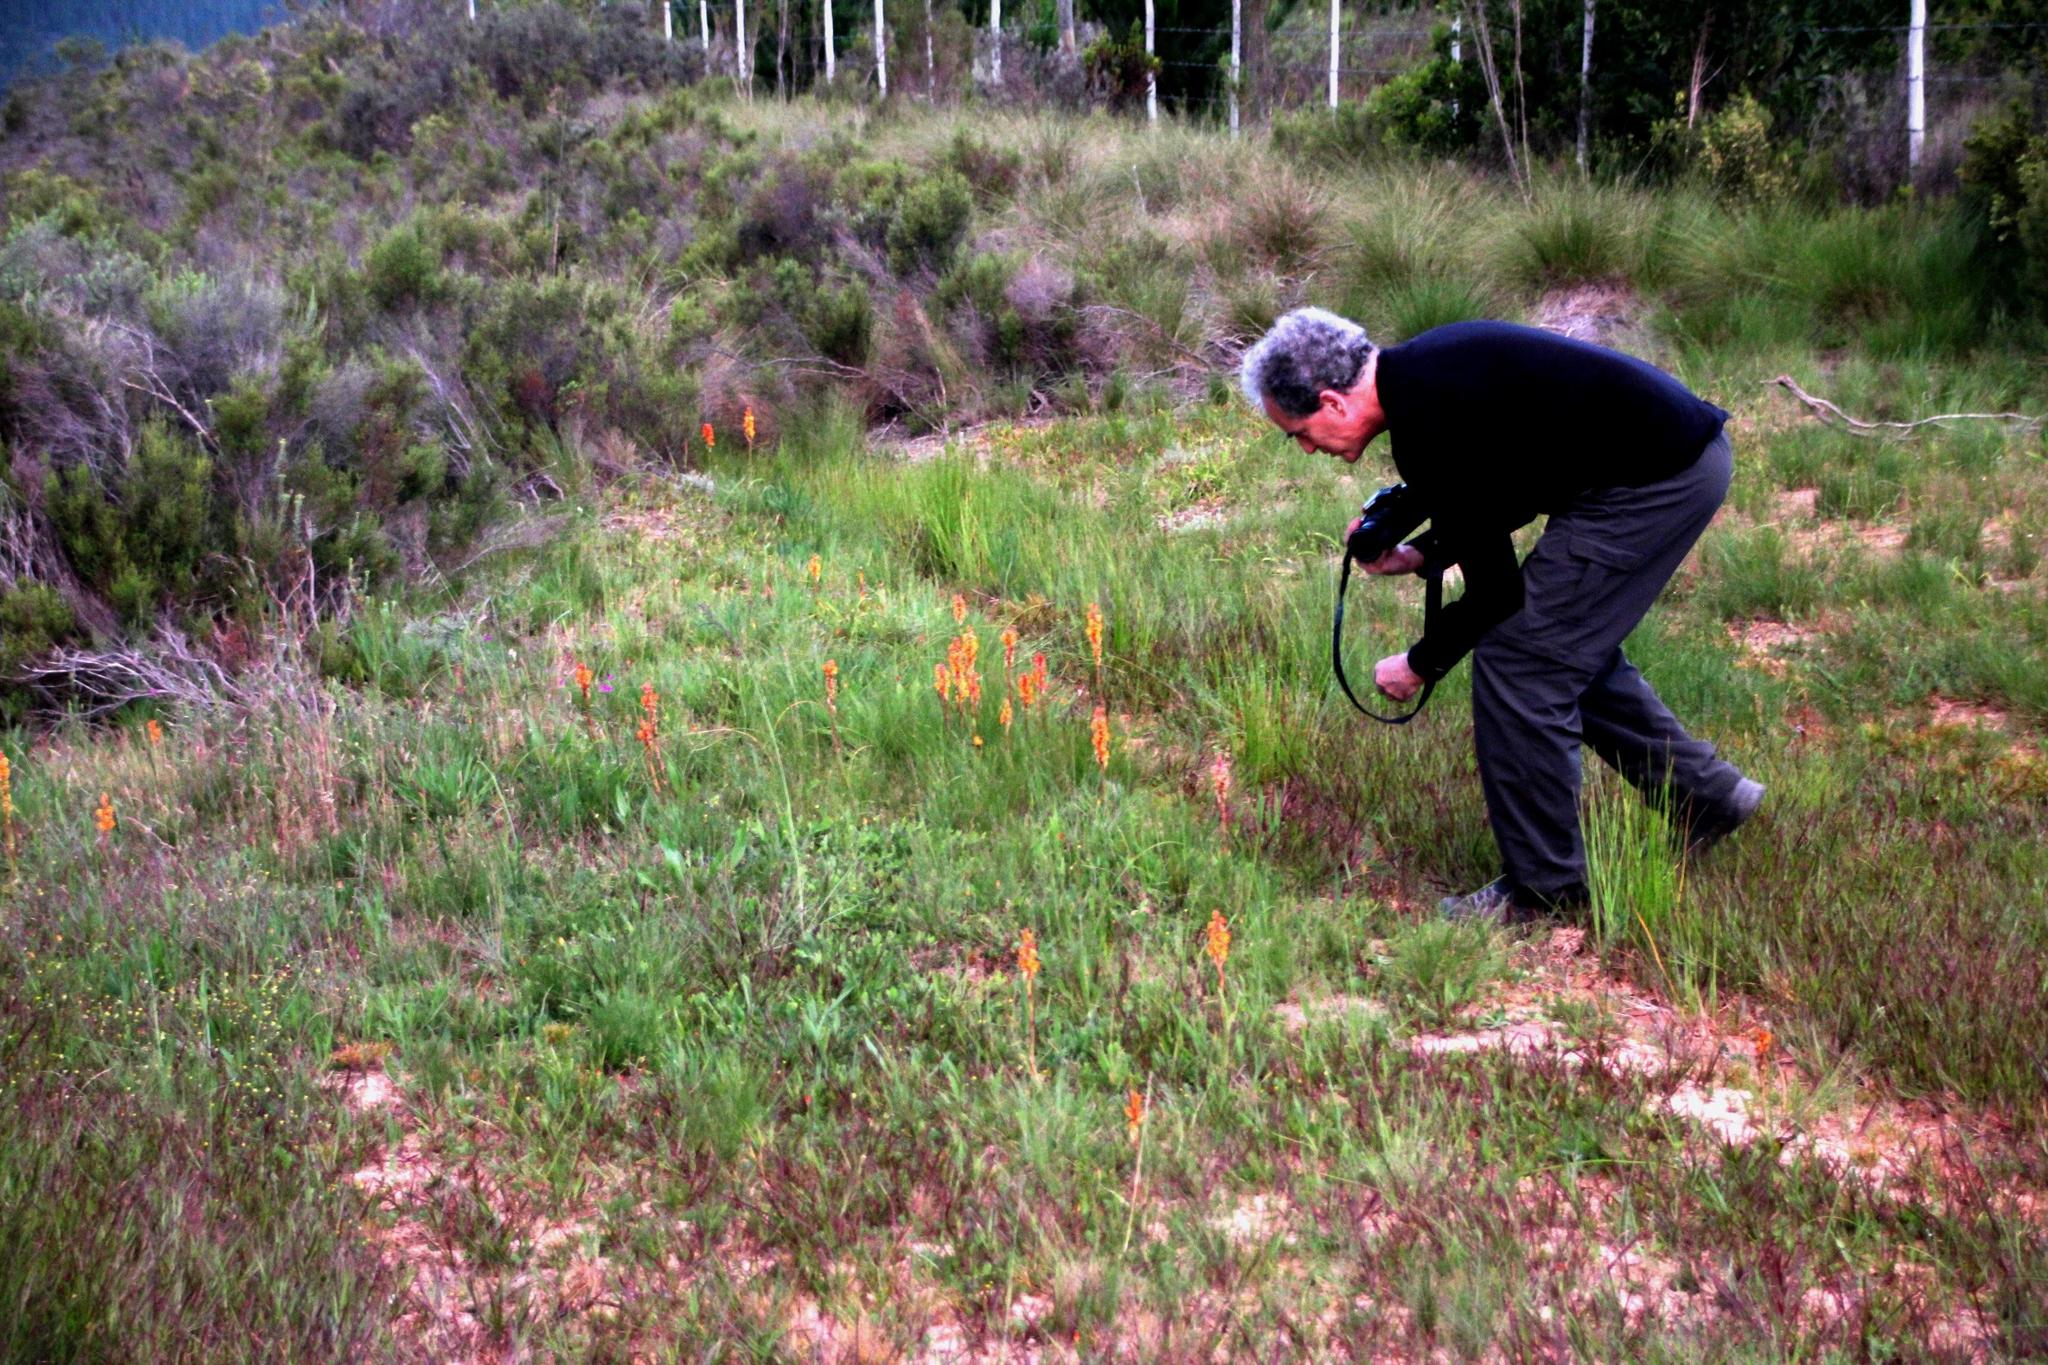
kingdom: Plantae
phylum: Tracheophyta
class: Liliopsida
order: Asparagales
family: Orchidaceae
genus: Satyrium
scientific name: Satyrium coriifolium
